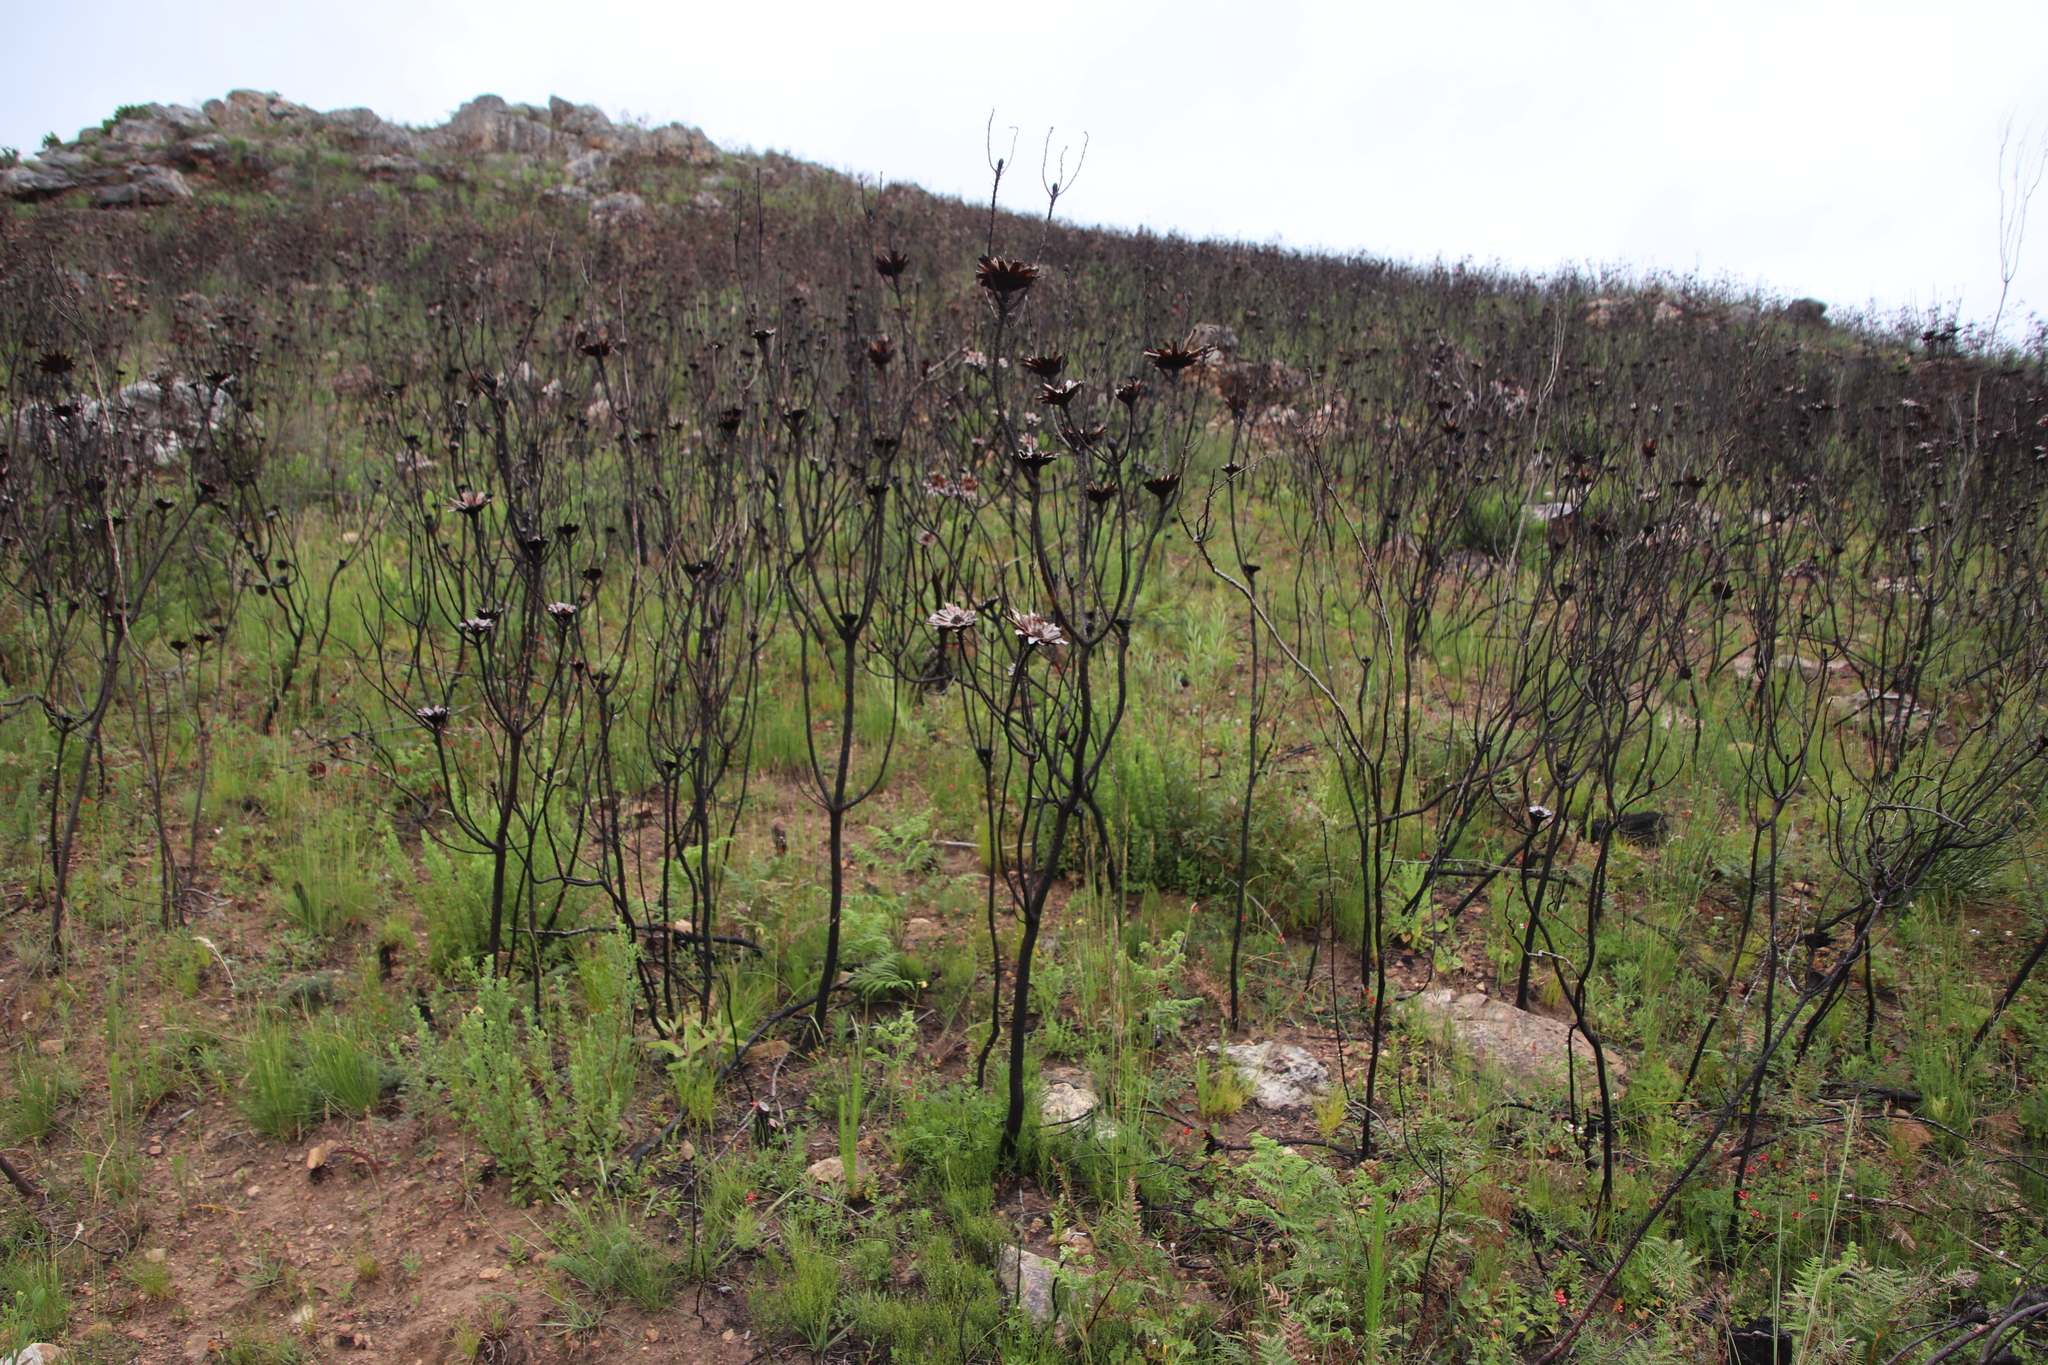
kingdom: Plantae
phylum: Tracheophyta
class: Magnoliopsida
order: Proteales
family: Proteaceae
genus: Protea
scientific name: Protea repens
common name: Sugarbush
